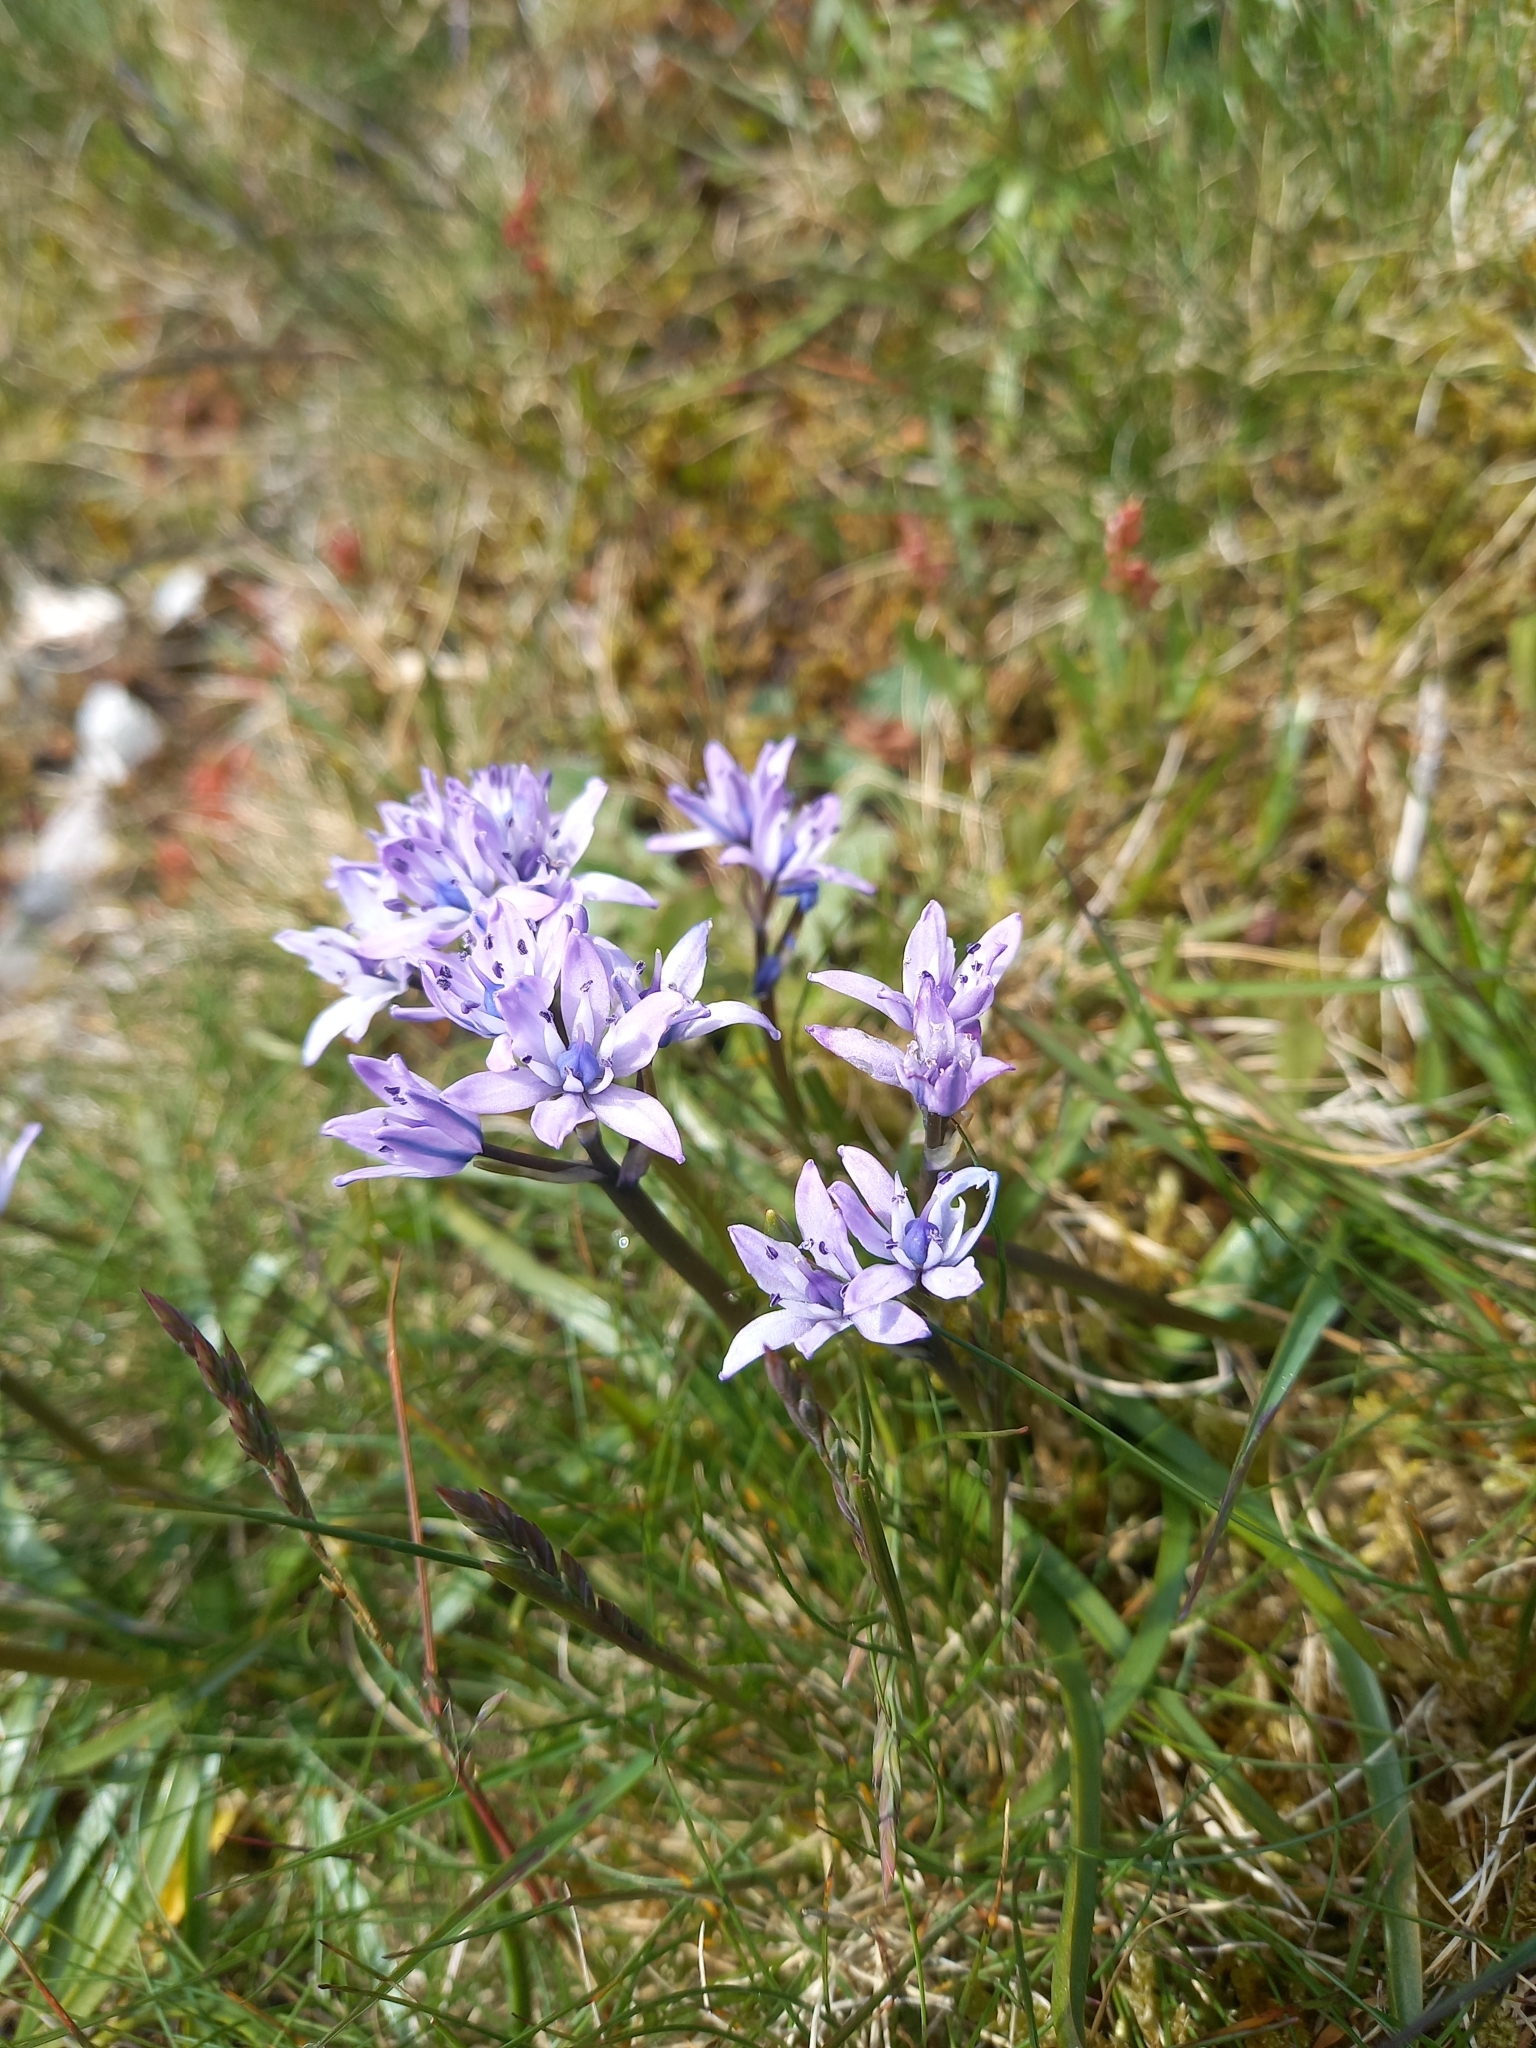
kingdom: Plantae
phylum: Tracheophyta
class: Liliopsida
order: Asparagales
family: Asparagaceae
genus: Scilla
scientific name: Scilla verna
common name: Spring squill
